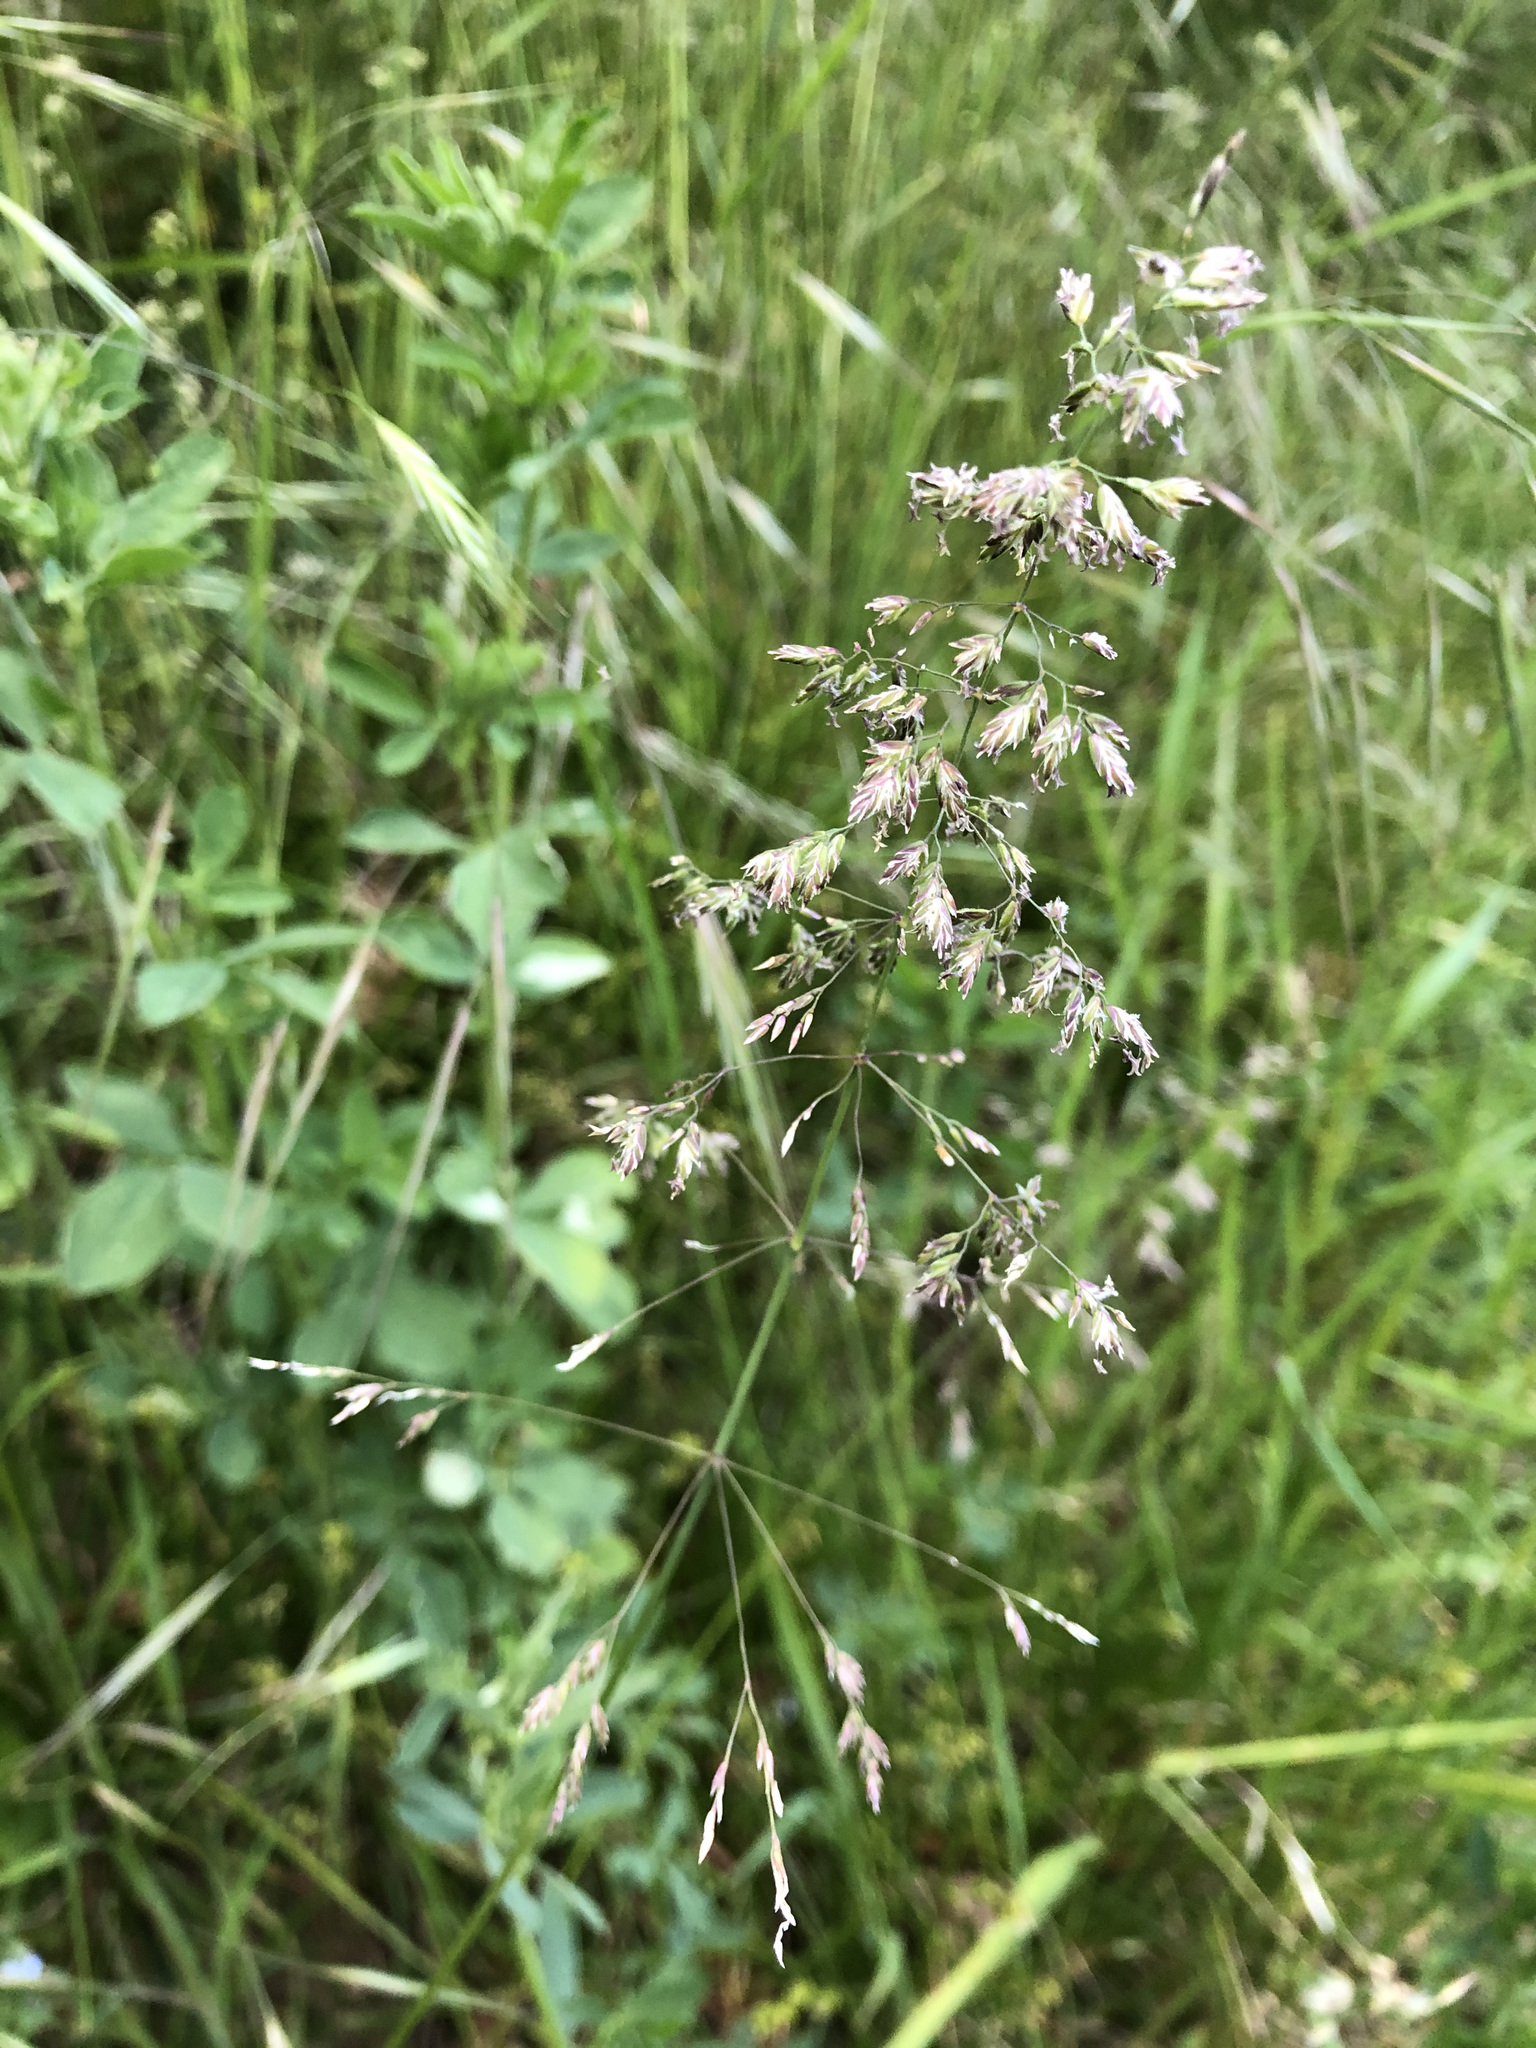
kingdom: Plantae
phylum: Tracheophyta
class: Liliopsida
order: Poales
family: Poaceae
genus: Poa
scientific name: Poa trivialis
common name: Rough bluegrass
